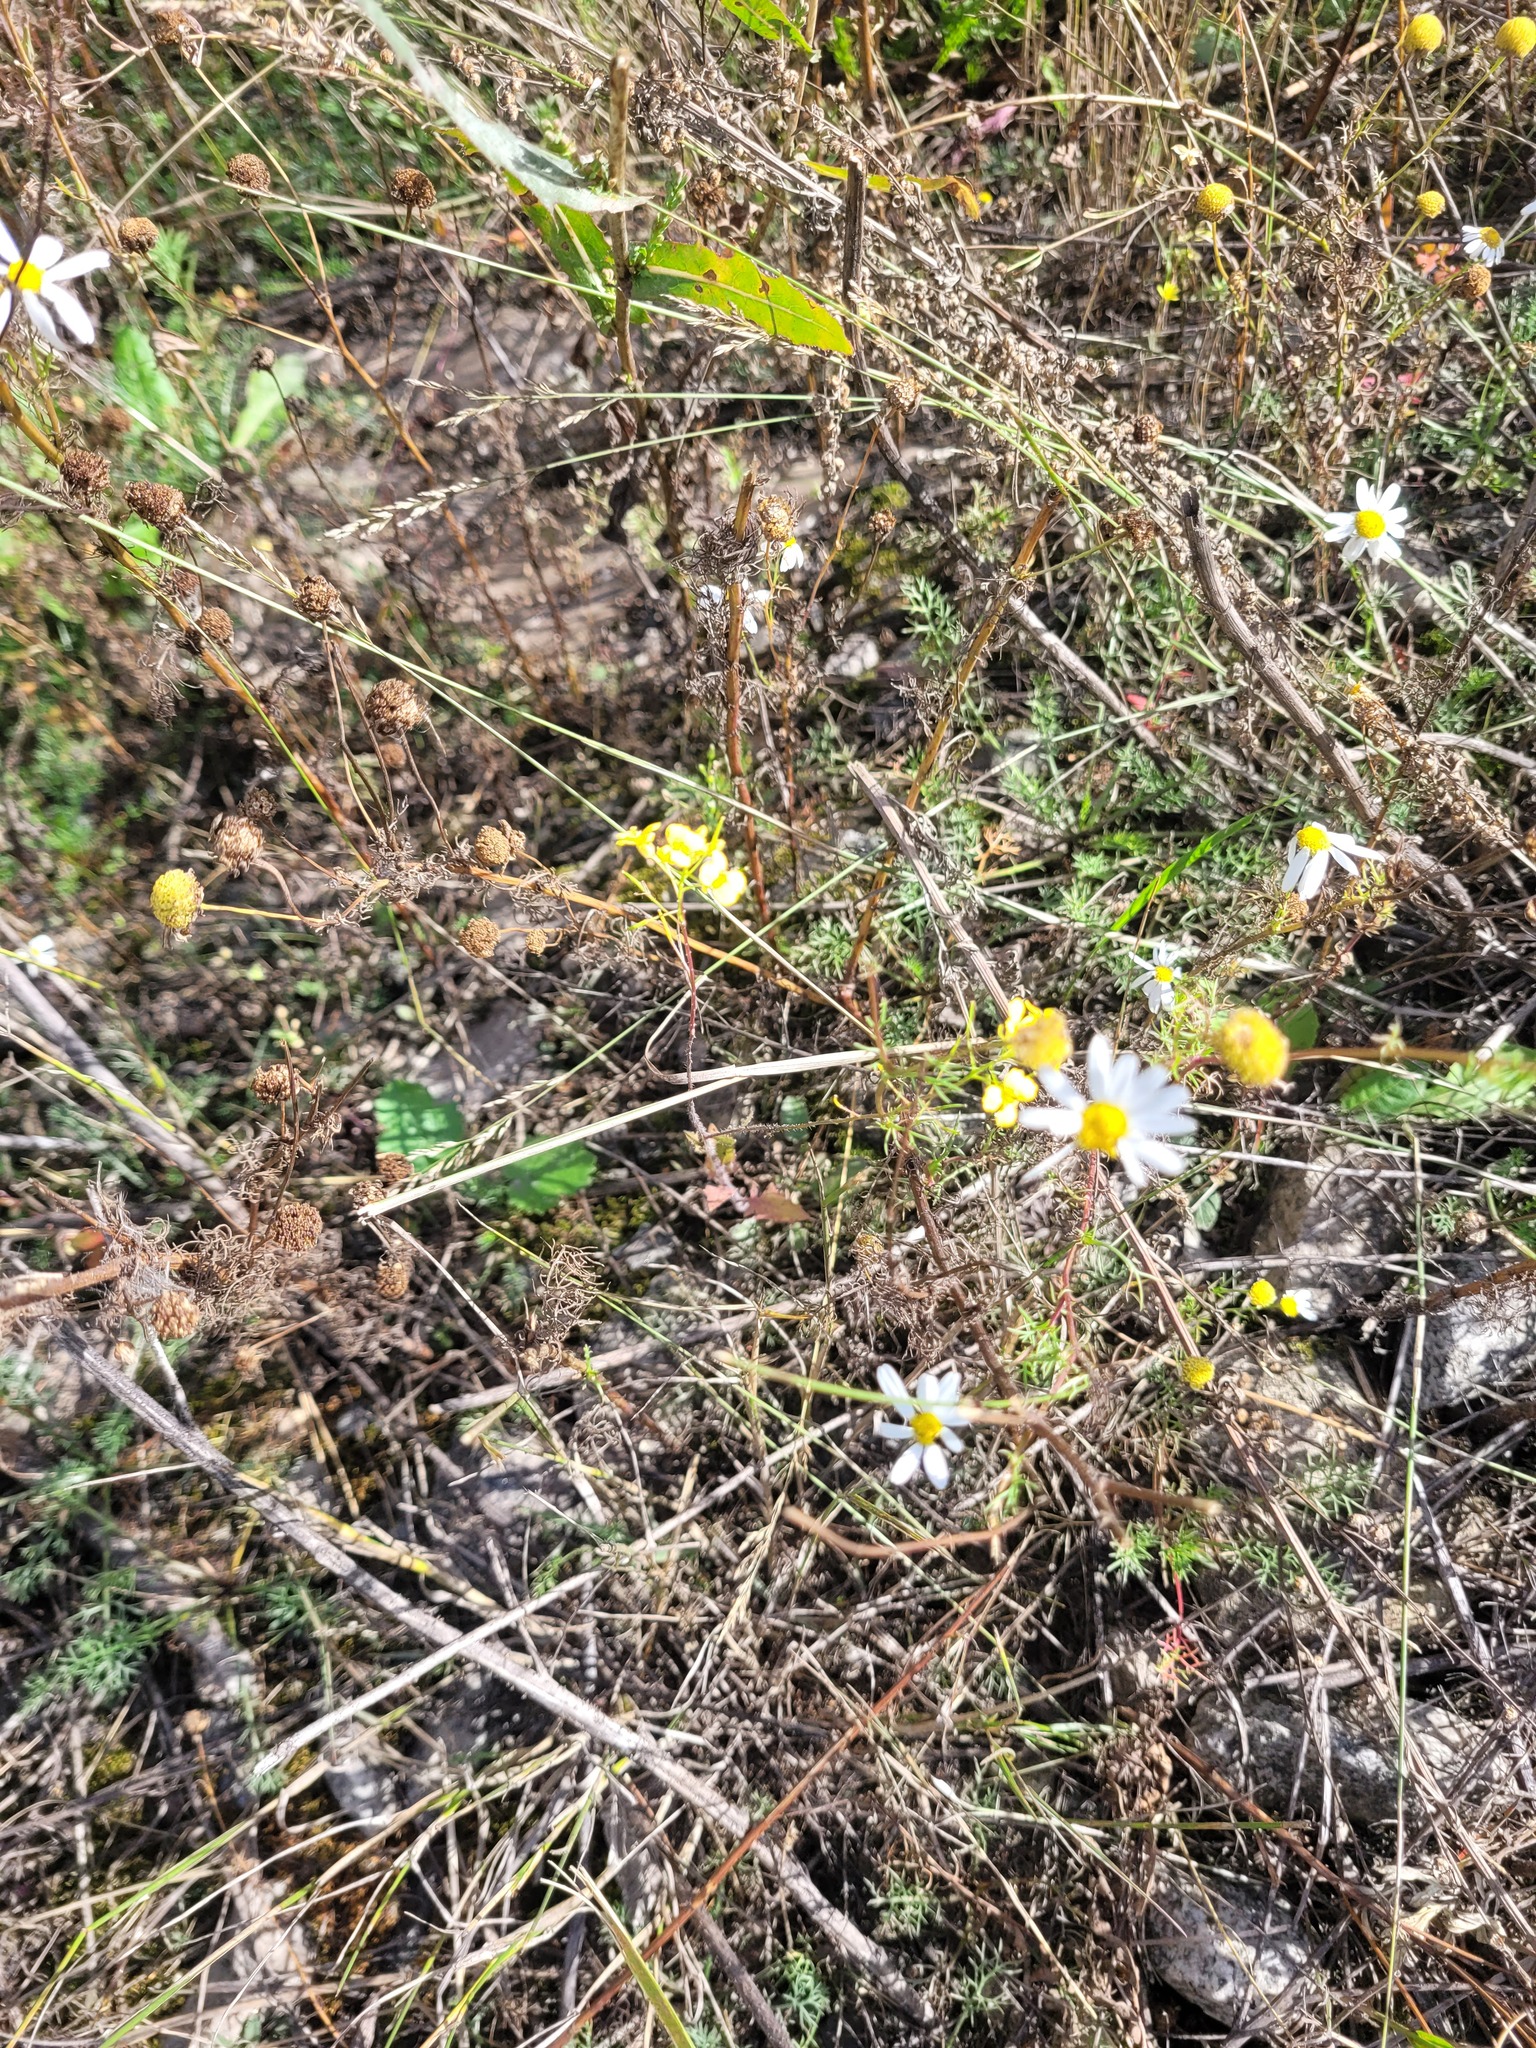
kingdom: Plantae
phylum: Tracheophyta
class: Magnoliopsida
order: Brassicales
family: Brassicaceae
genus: Sisymbrium
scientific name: Sisymbrium loeselii
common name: False london-rocket
